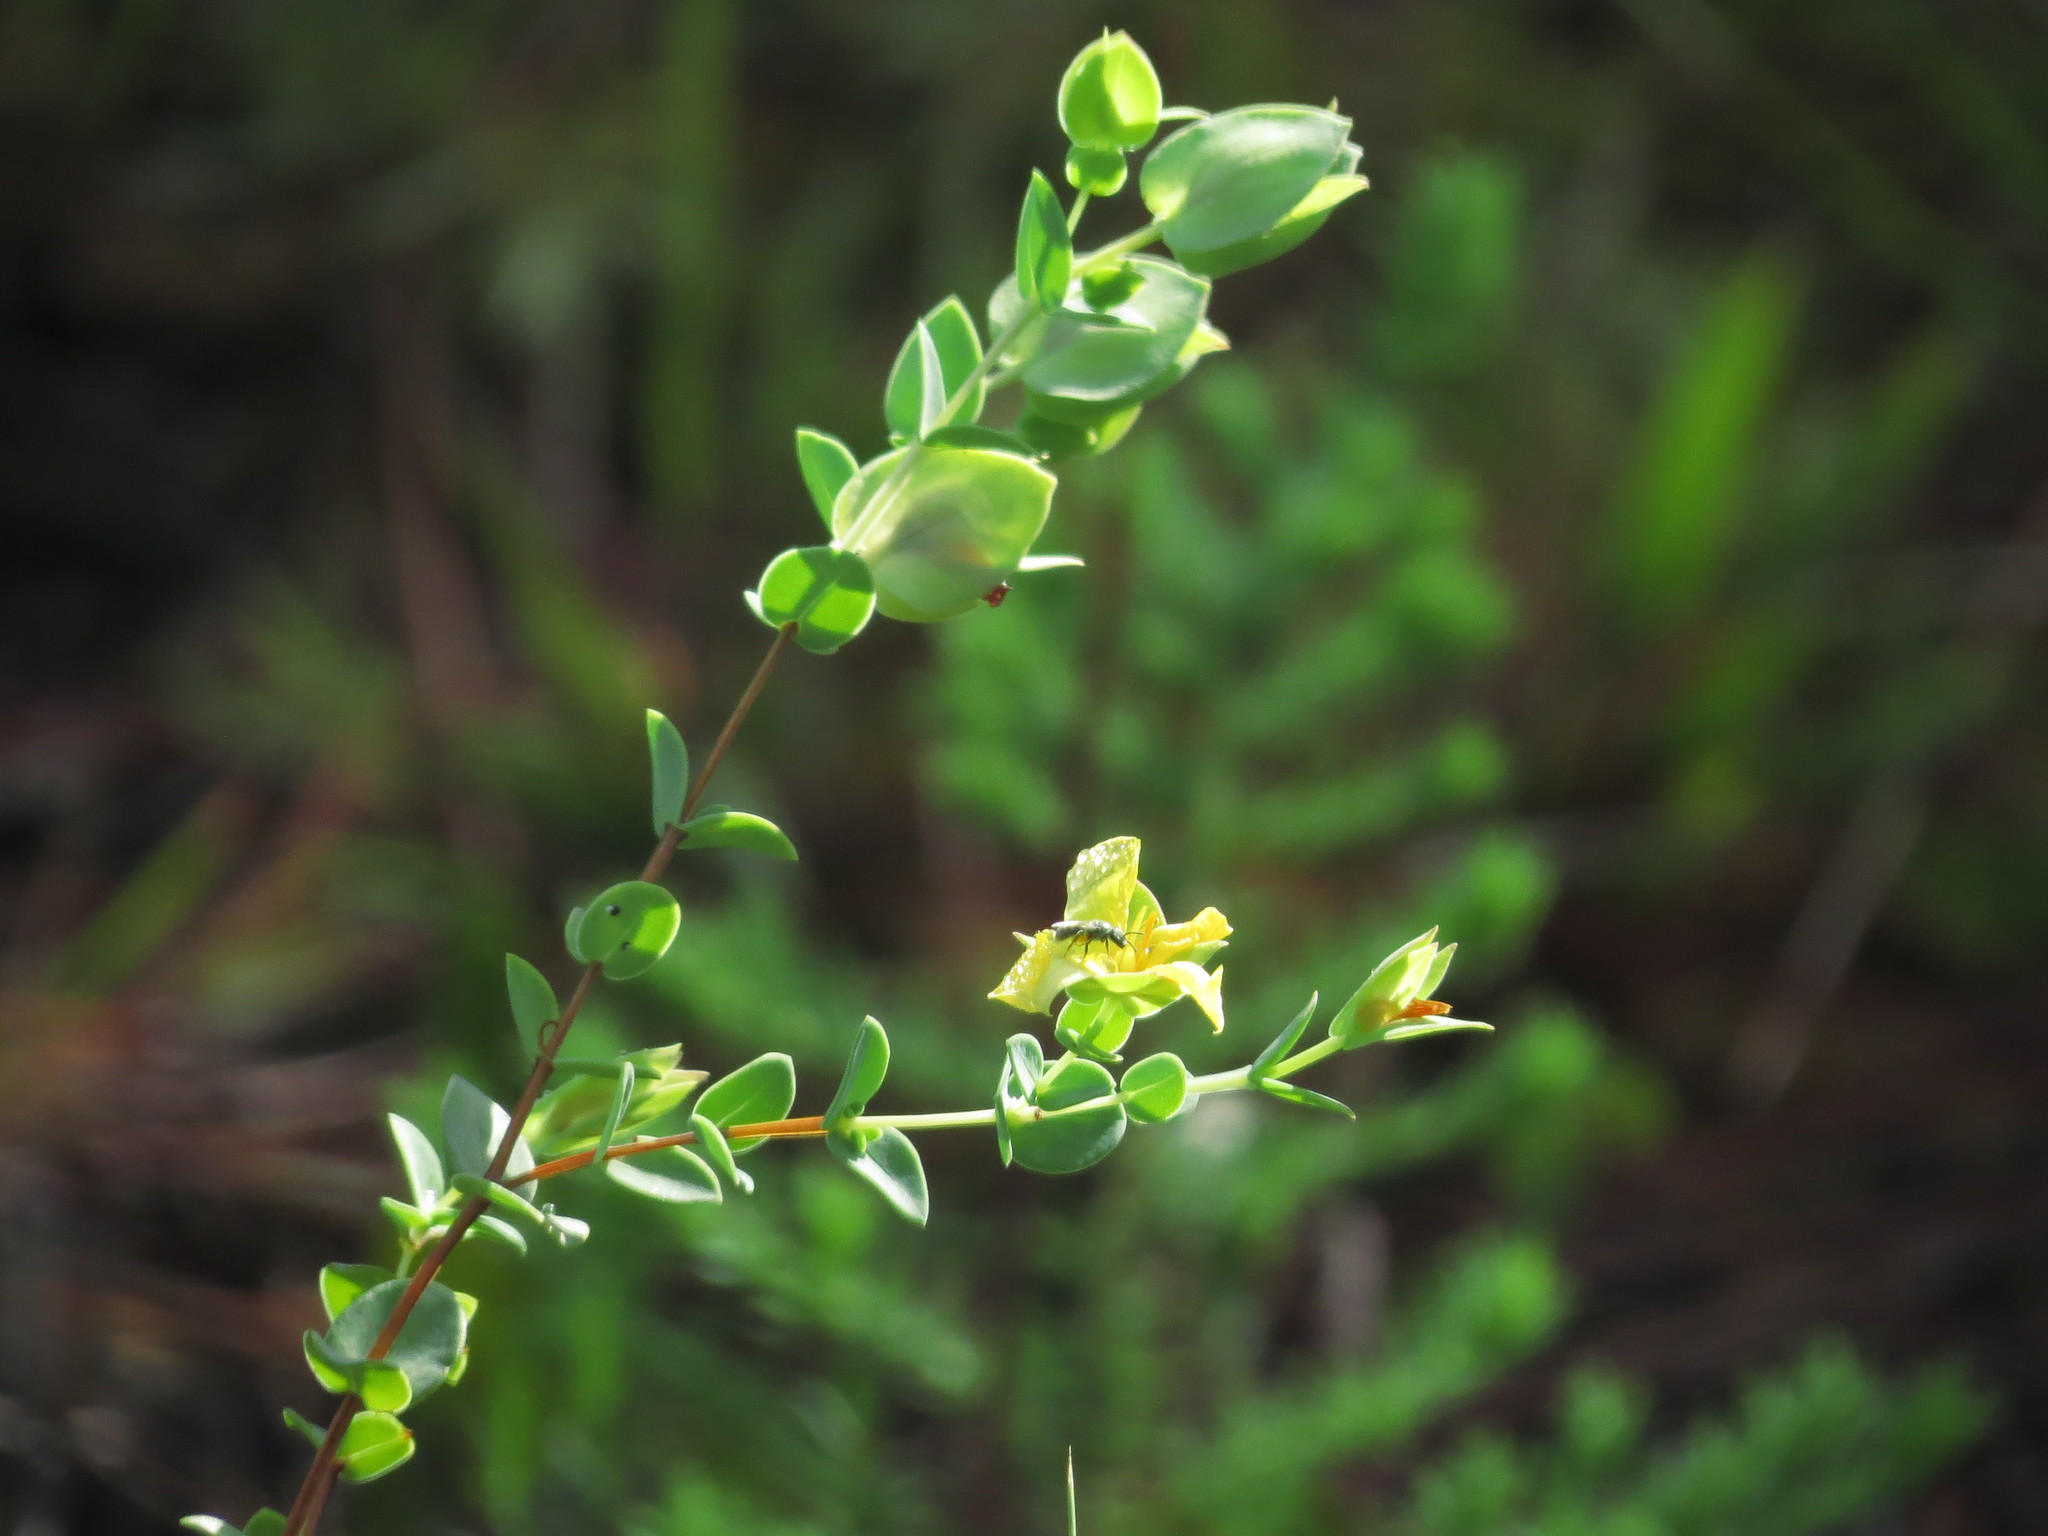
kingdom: Plantae
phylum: Tracheophyta
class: Magnoliopsida
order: Malpighiales
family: Hypericaceae
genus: Hypericum
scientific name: Hypericum tetrapetalum
